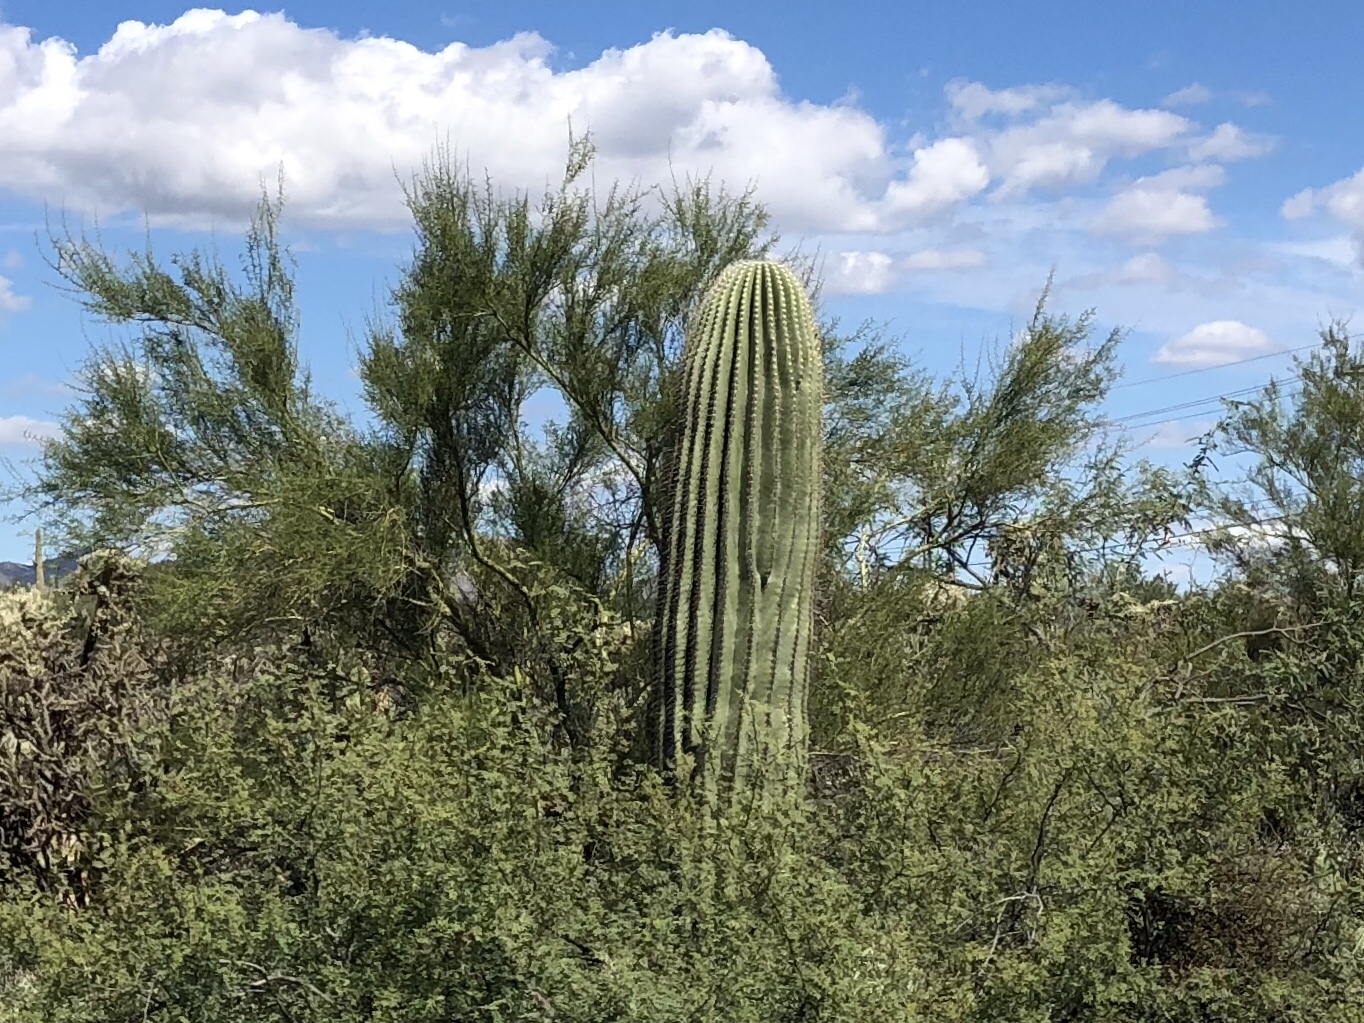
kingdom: Plantae
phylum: Tracheophyta
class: Magnoliopsida
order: Caryophyllales
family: Cactaceae
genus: Carnegiea
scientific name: Carnegiea gigantea
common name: Saguaro
